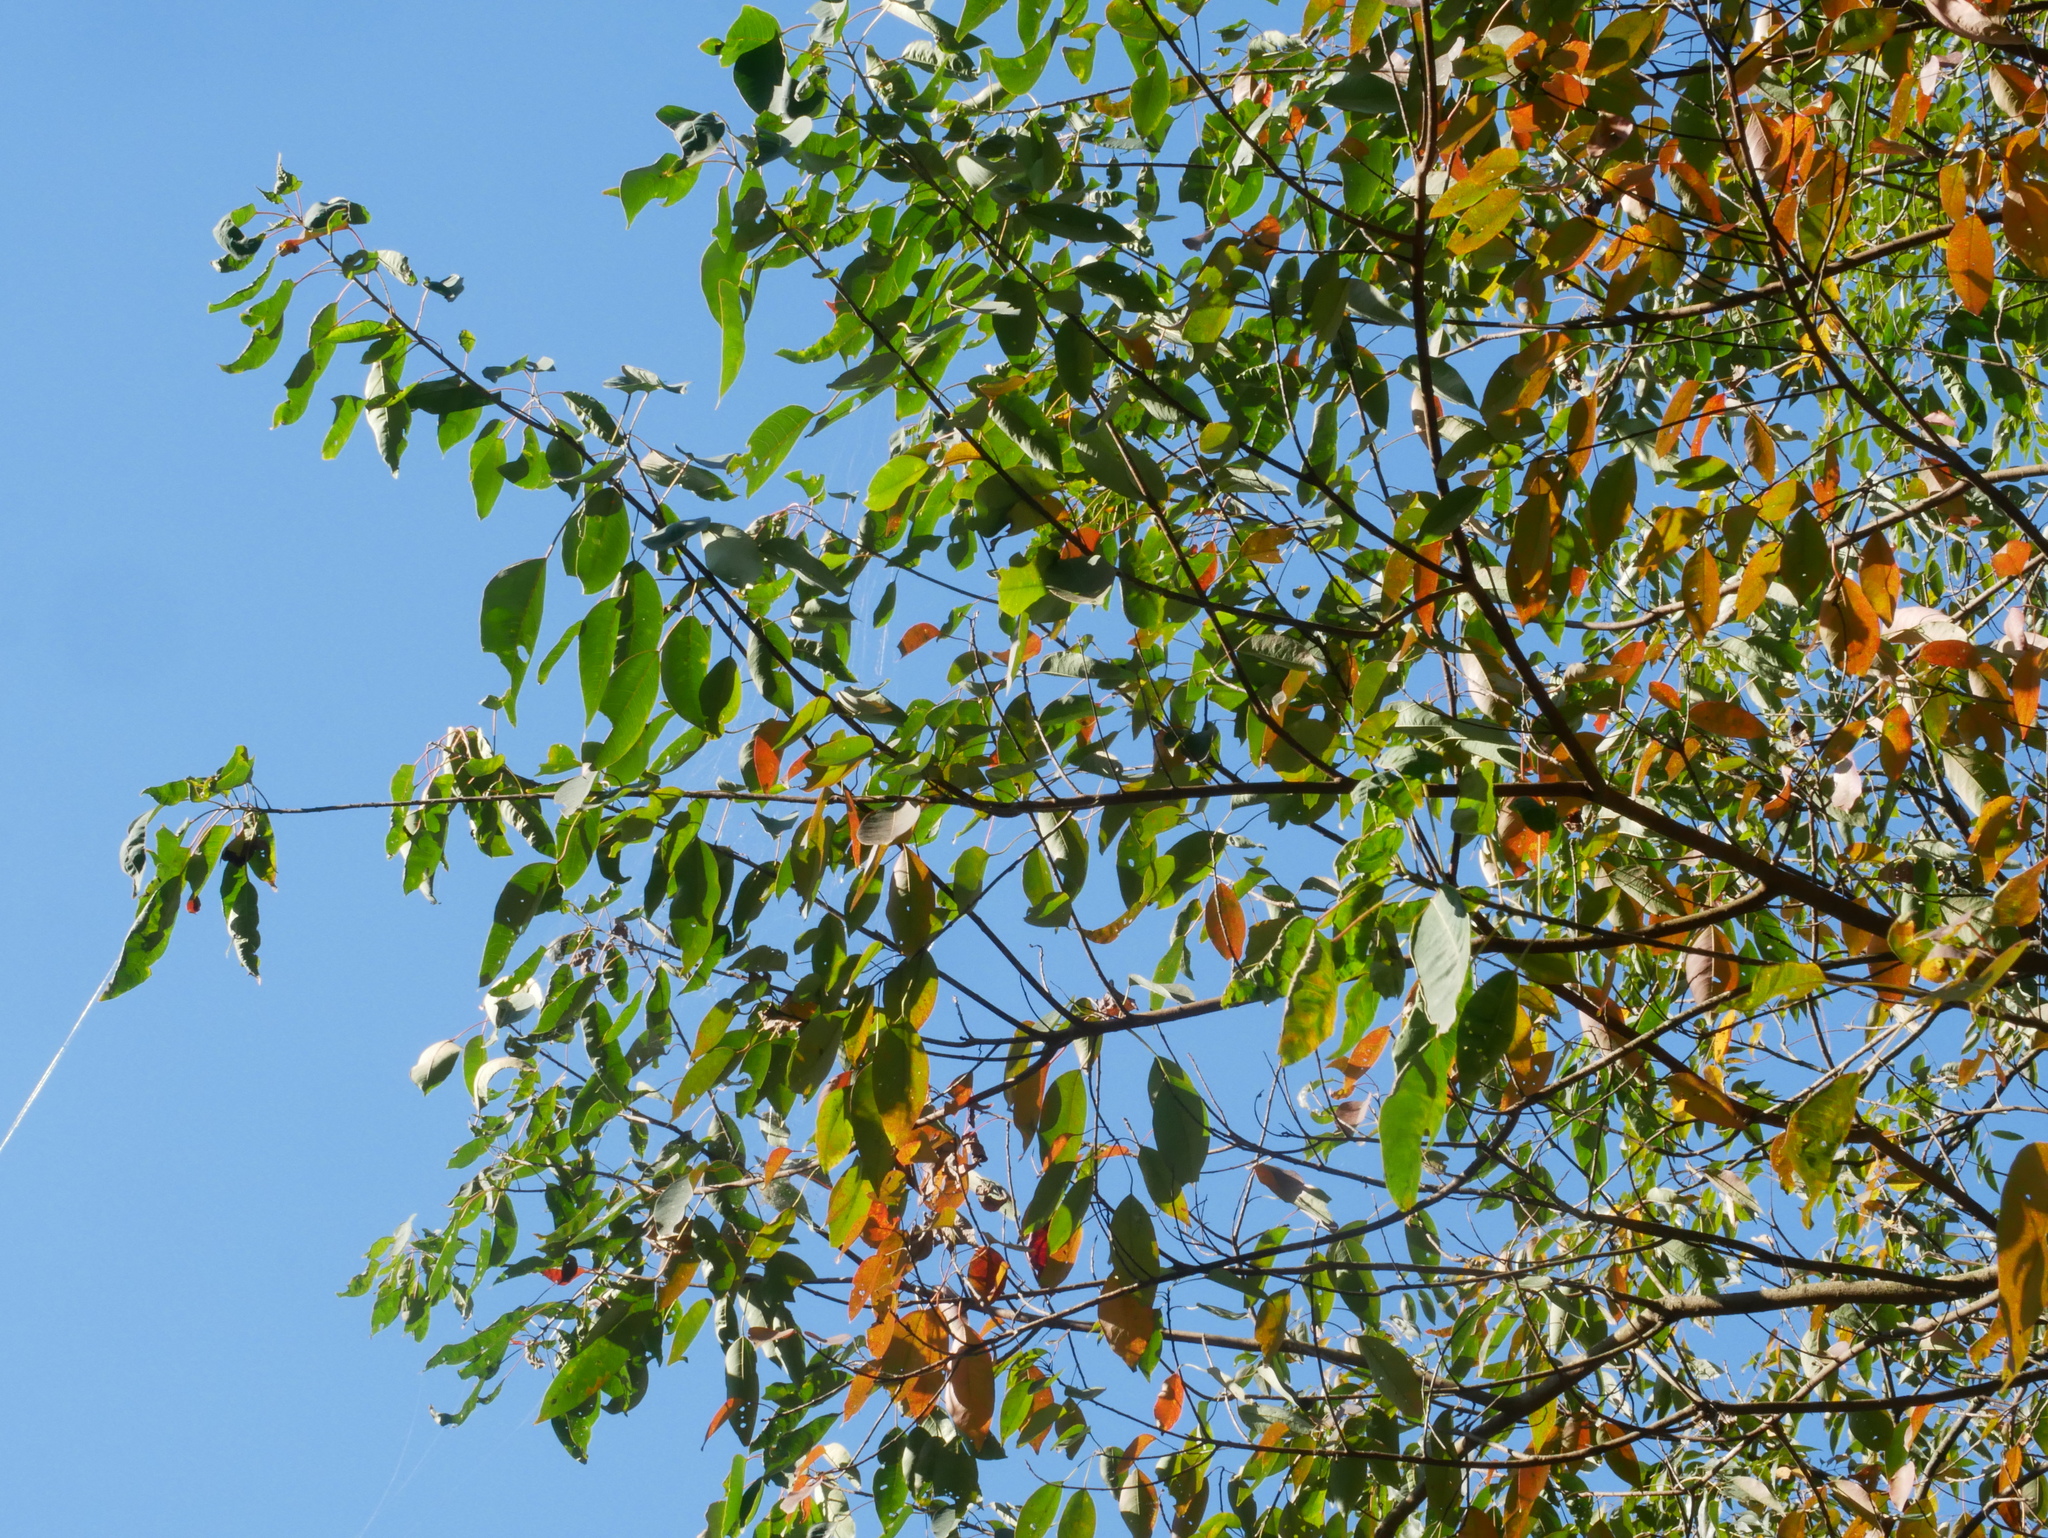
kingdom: Plantae
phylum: Tracheophyta
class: Magnoliopsida
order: Malpighiales
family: Euphorbiaceae
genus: Triadica
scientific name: Triadica cochinchinensis
